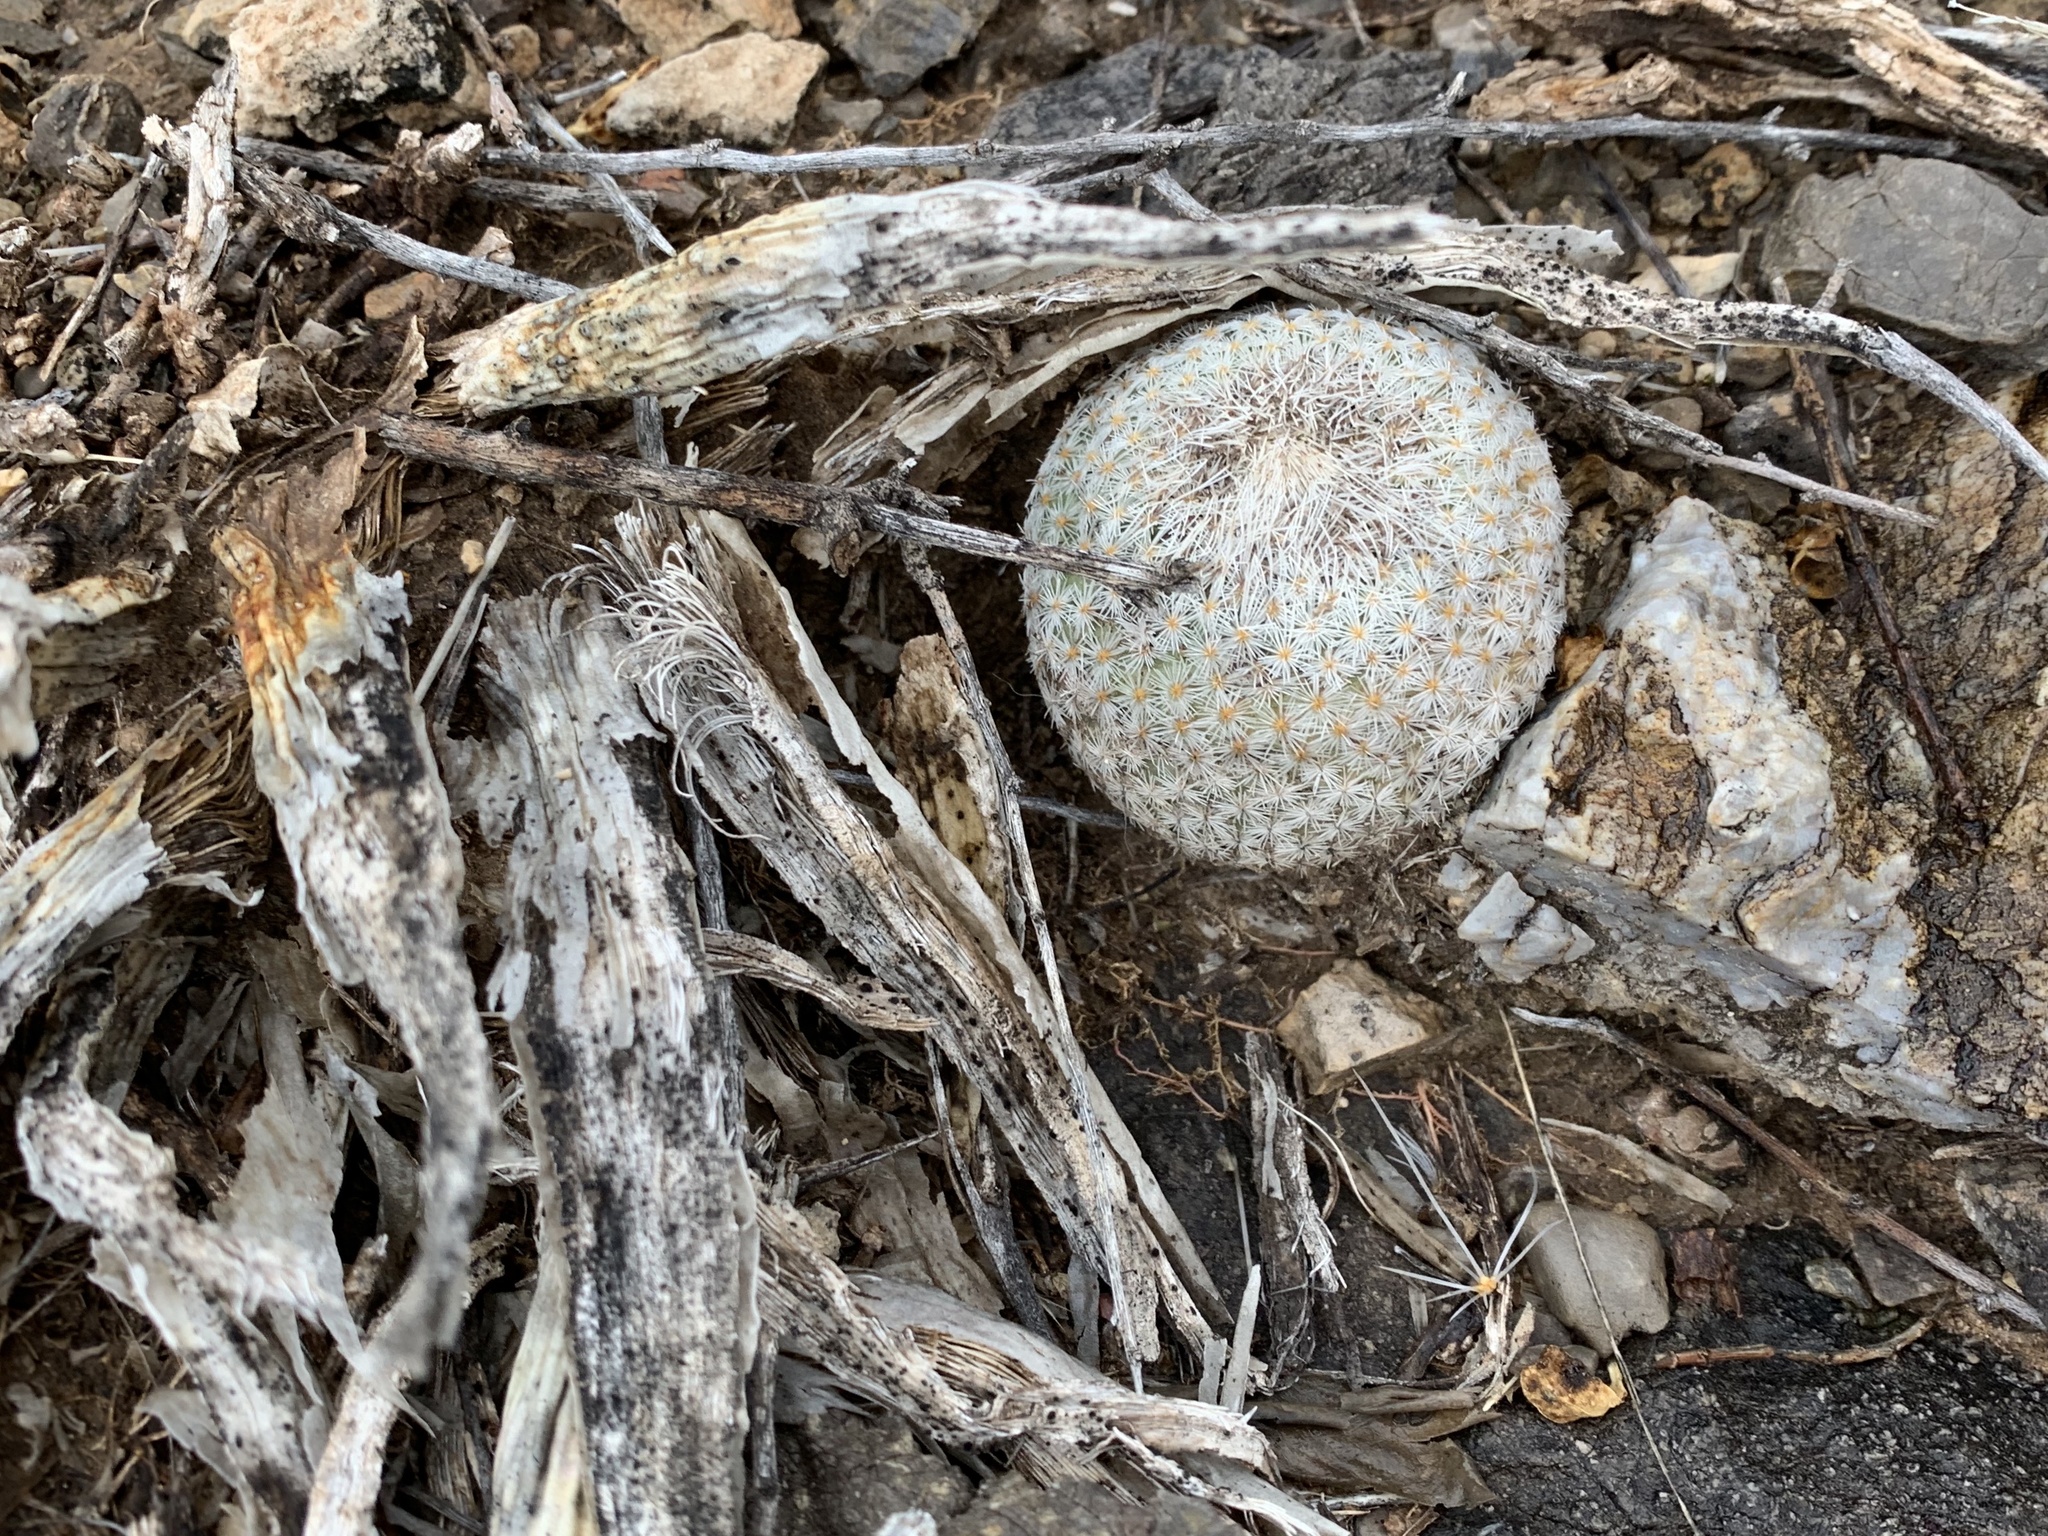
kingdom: Plantae
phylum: Tracheophyta
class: Magnoliopsida
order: Caryophyllales
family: Cactaceae
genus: Epithelantha
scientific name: Epithelantha micromeris
